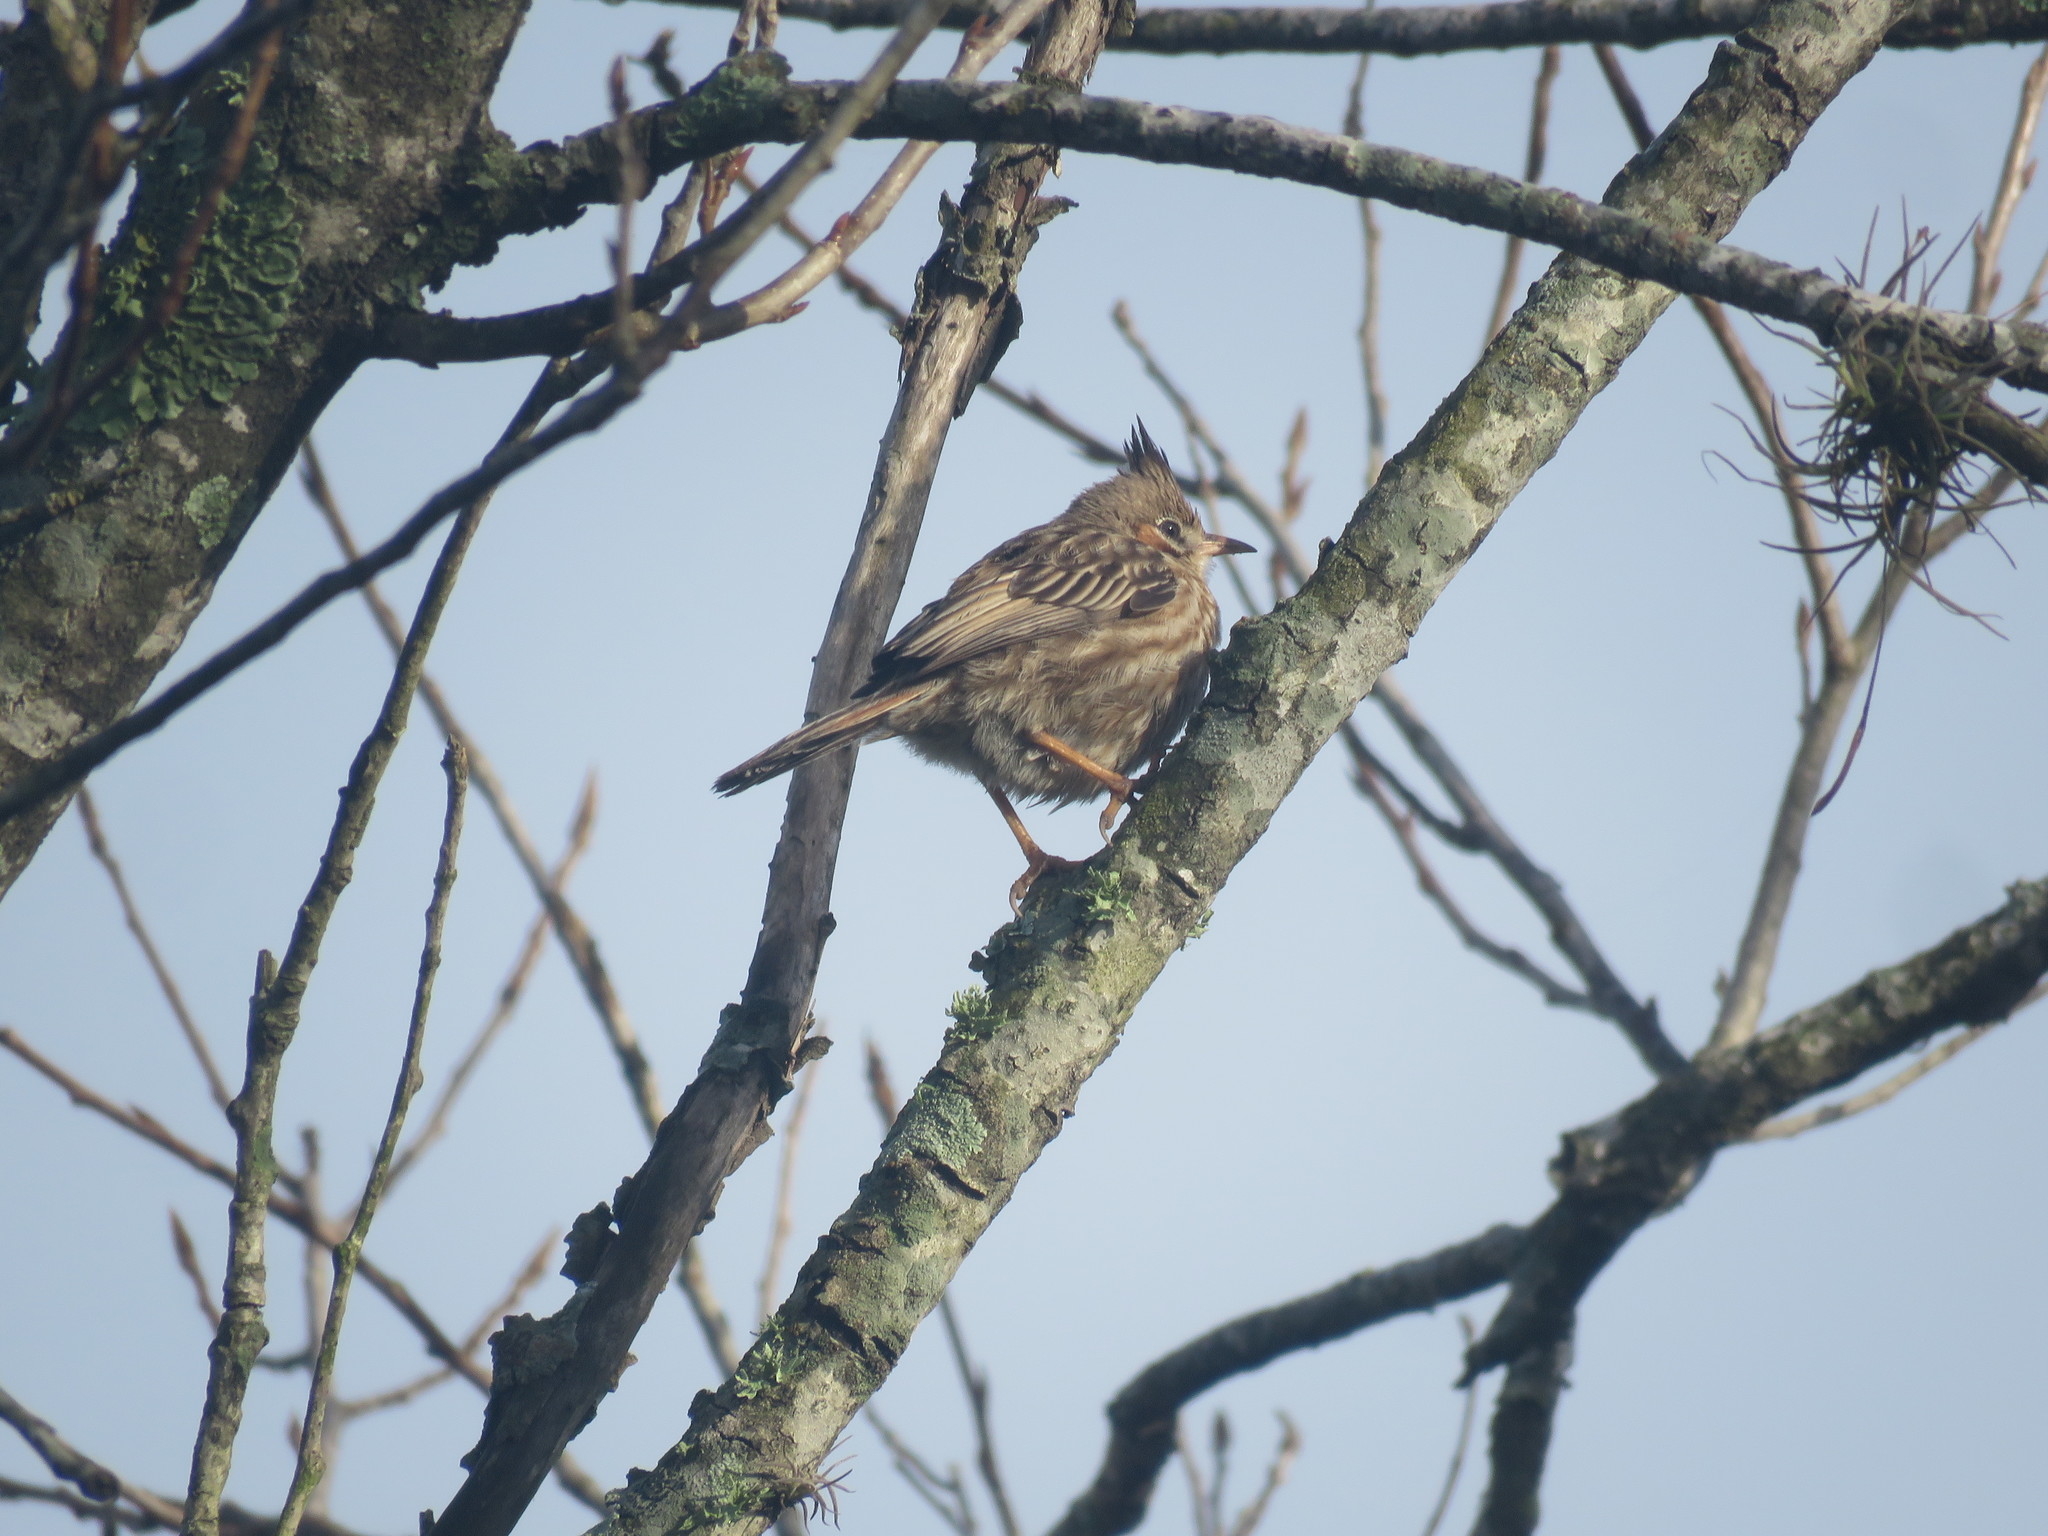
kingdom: Animalia
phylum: Chordata
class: Aves
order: Passeriformes
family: Furnariidae
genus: Coryphistera
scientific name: Coryphistera alaudina
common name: Lark-like brushrunner
